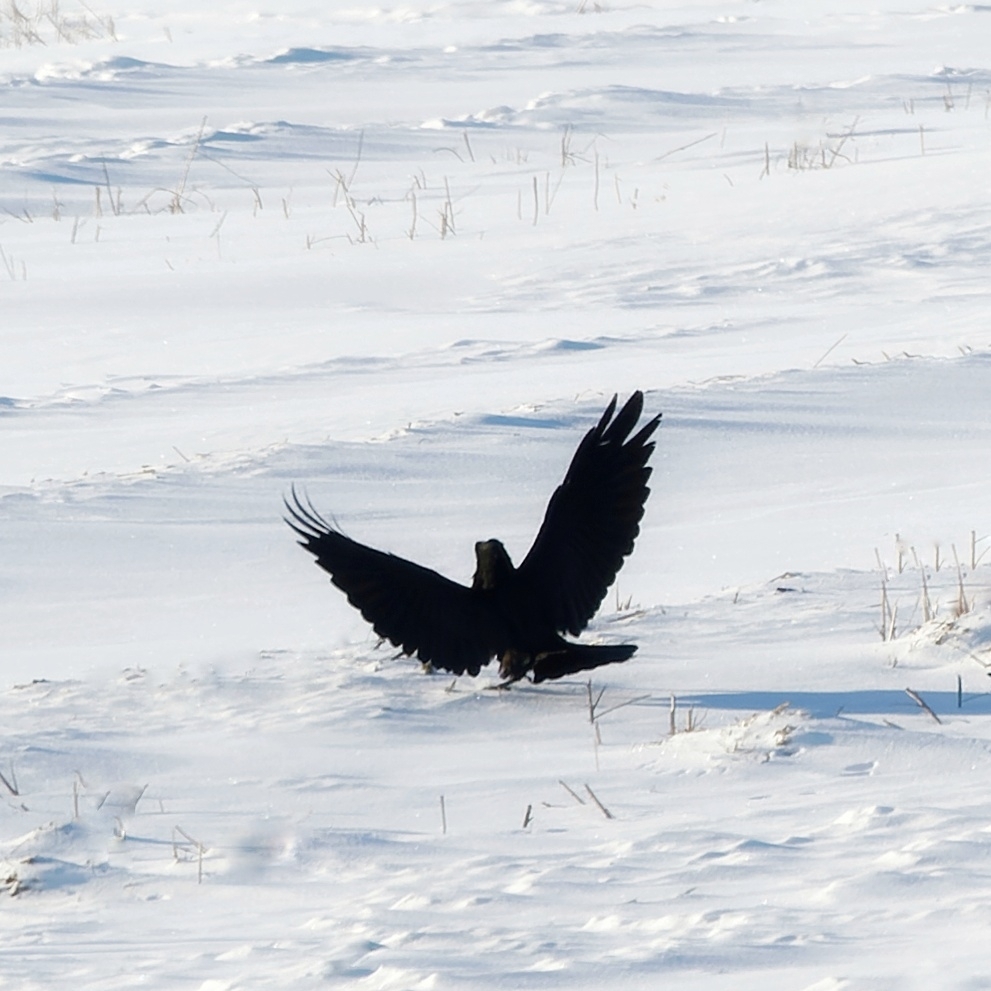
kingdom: Animalia
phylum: Chordata
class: Aves
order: Passeriformes
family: Corvidae
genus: Corvus
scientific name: Corvus corax
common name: Common raven
